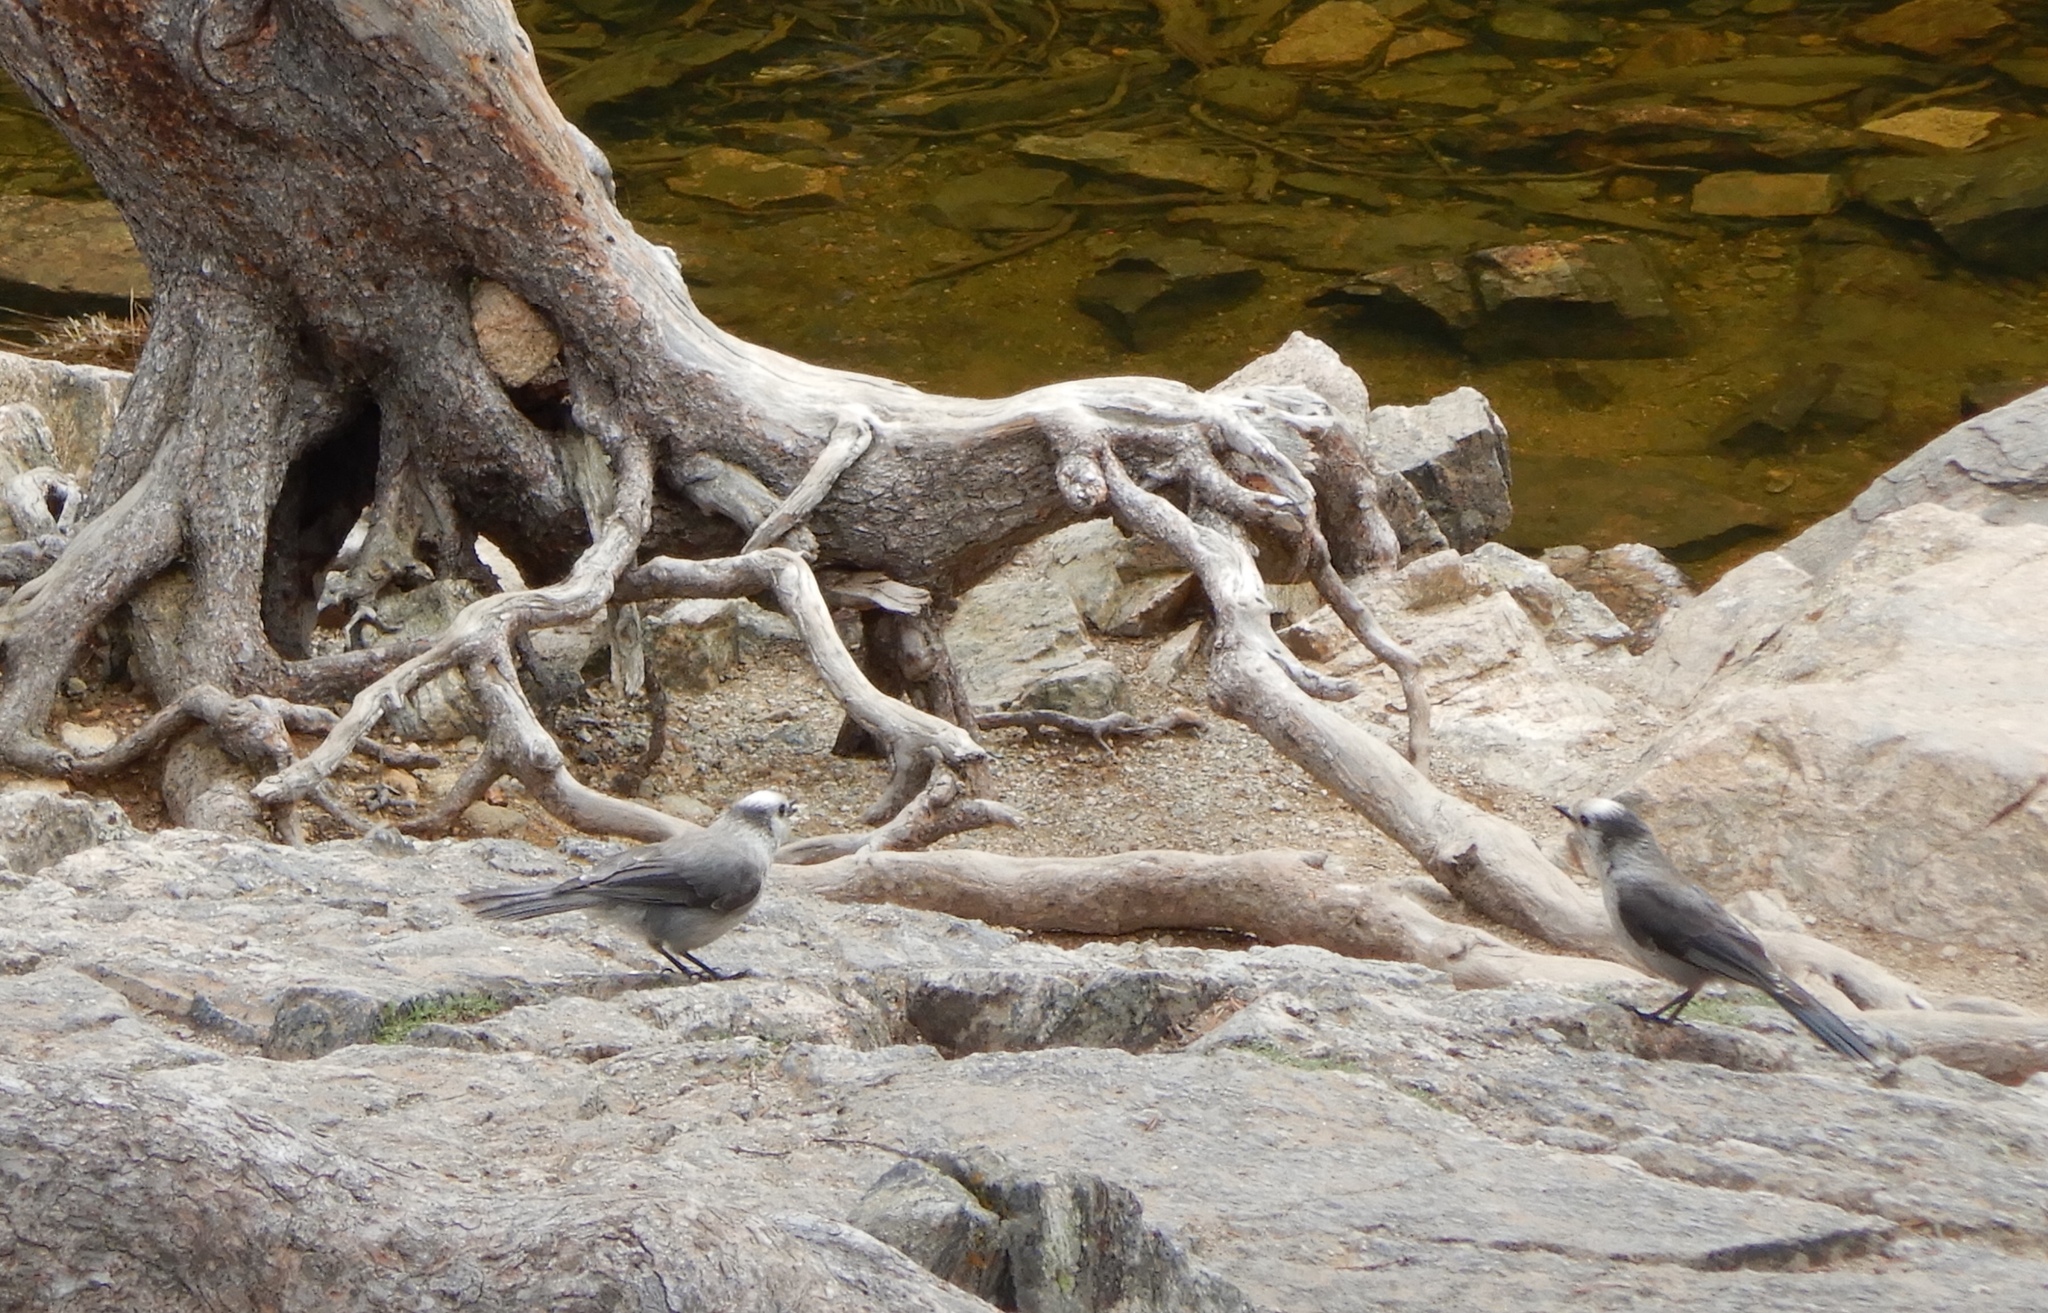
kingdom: Animalia
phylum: Chordata
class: Aves
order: Passeriformes
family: Corvidae
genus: Perisoreus
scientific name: Perisoreus canadensis
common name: Gray jay
